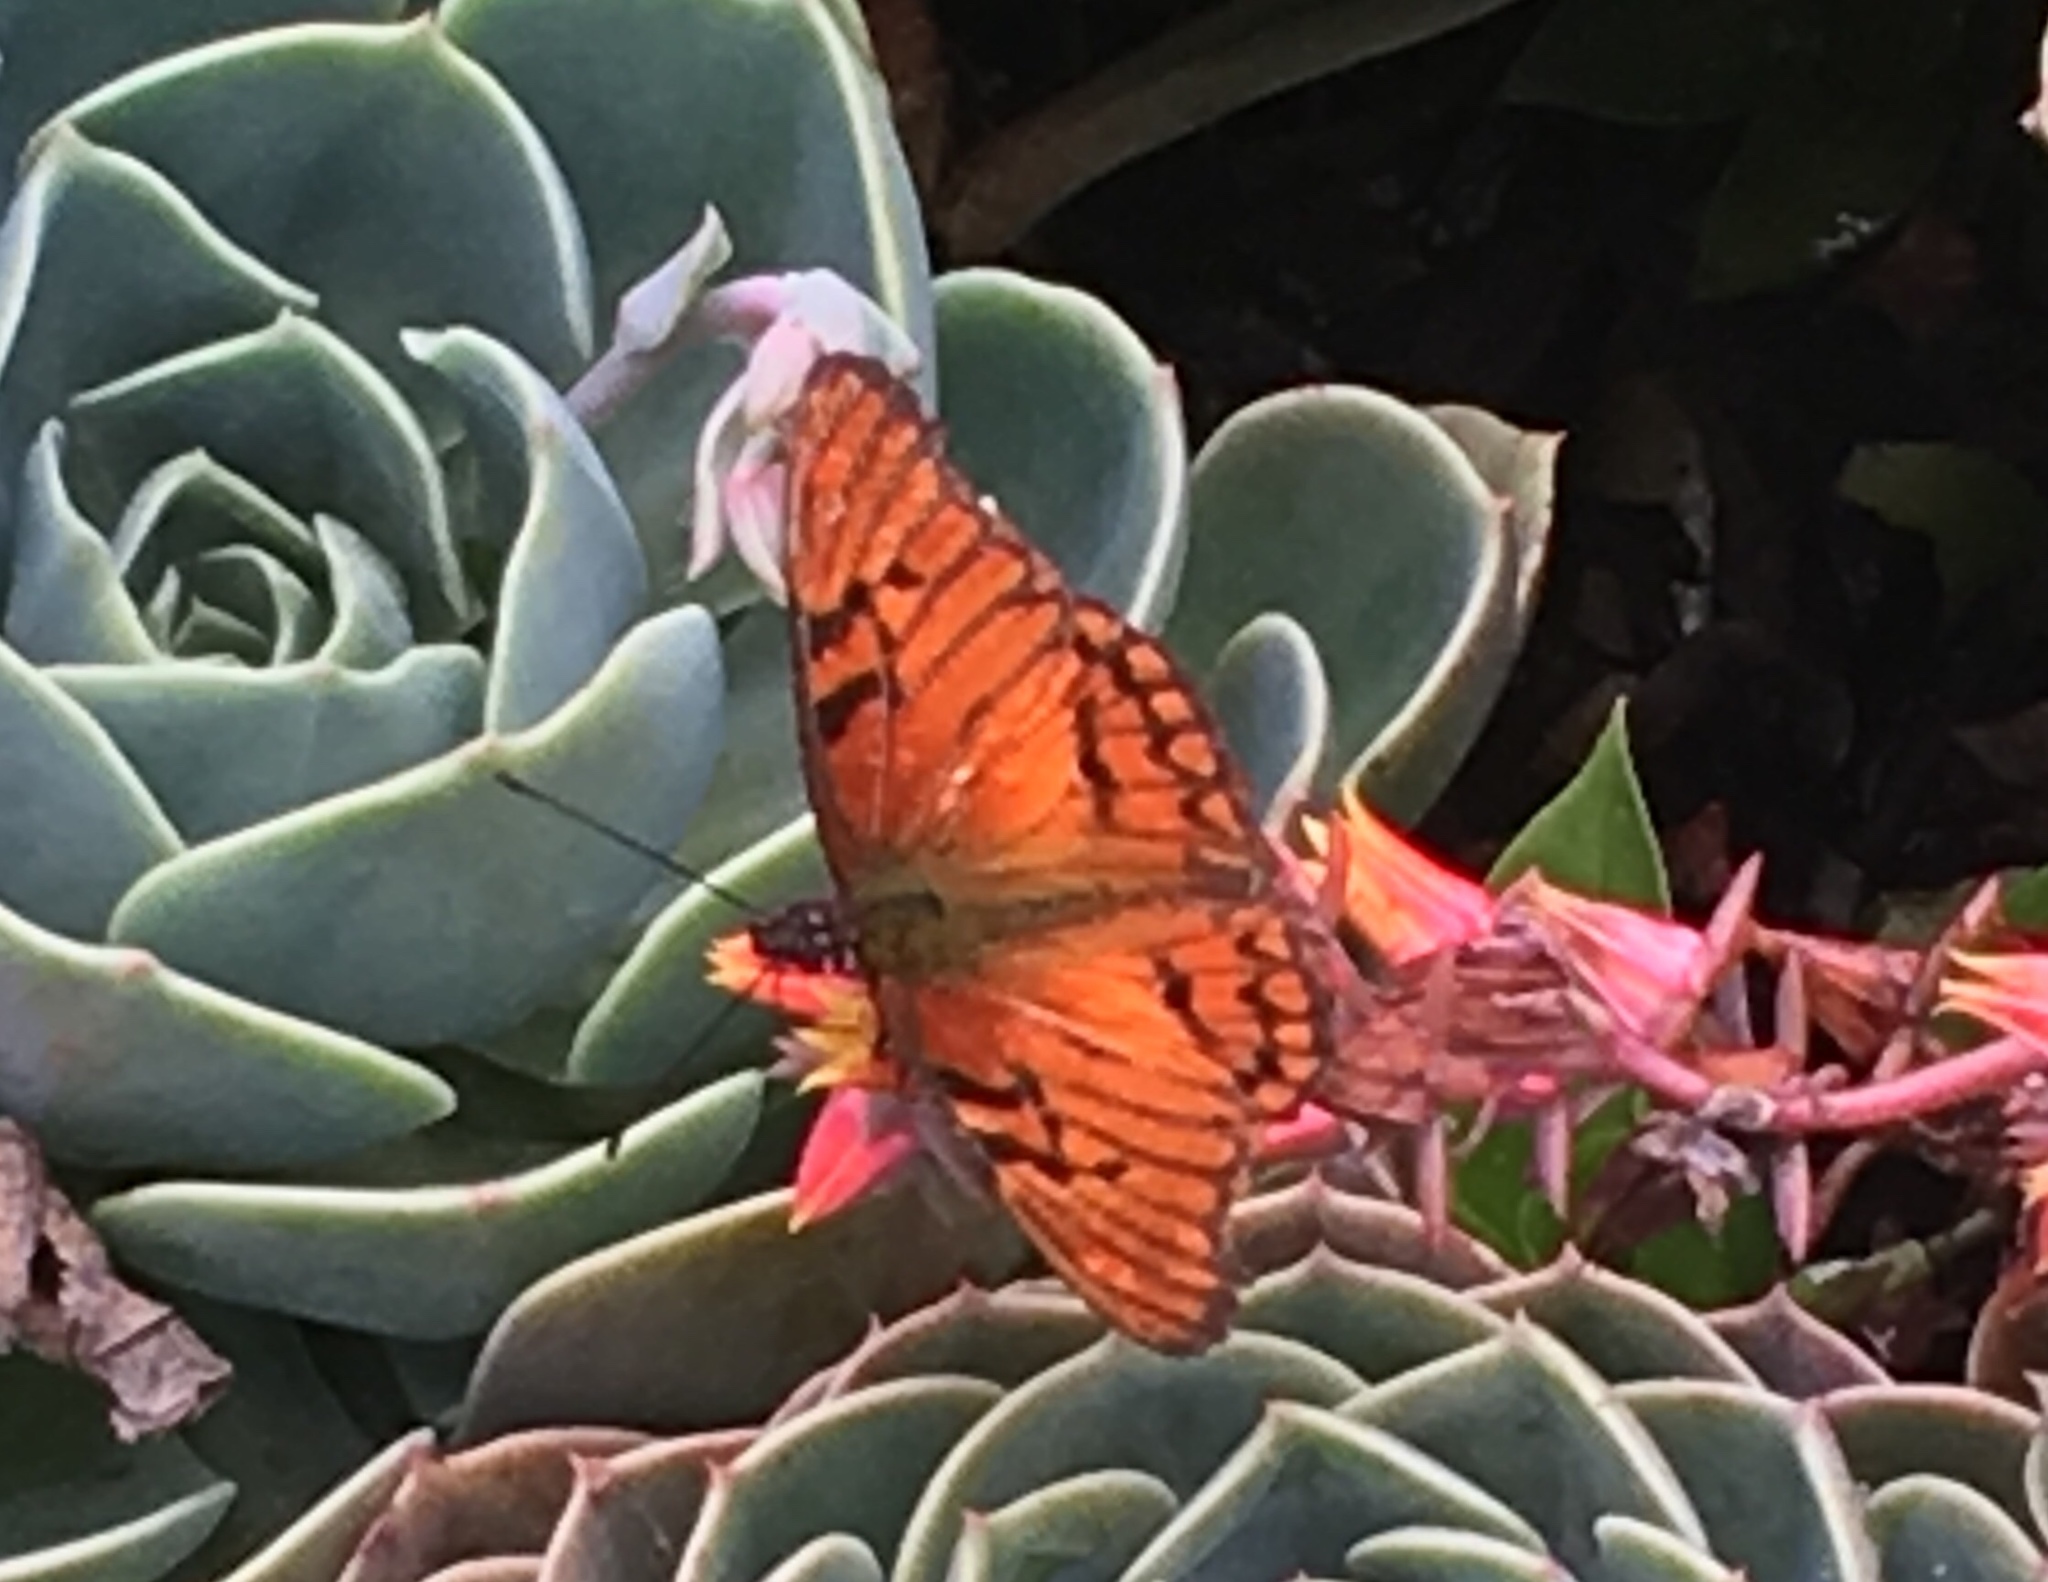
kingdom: Animalia
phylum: Arthropoda
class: Insecta
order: Lepidoptera
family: Nymphalidae
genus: Dione
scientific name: Dione glycera
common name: Andean silverspot
